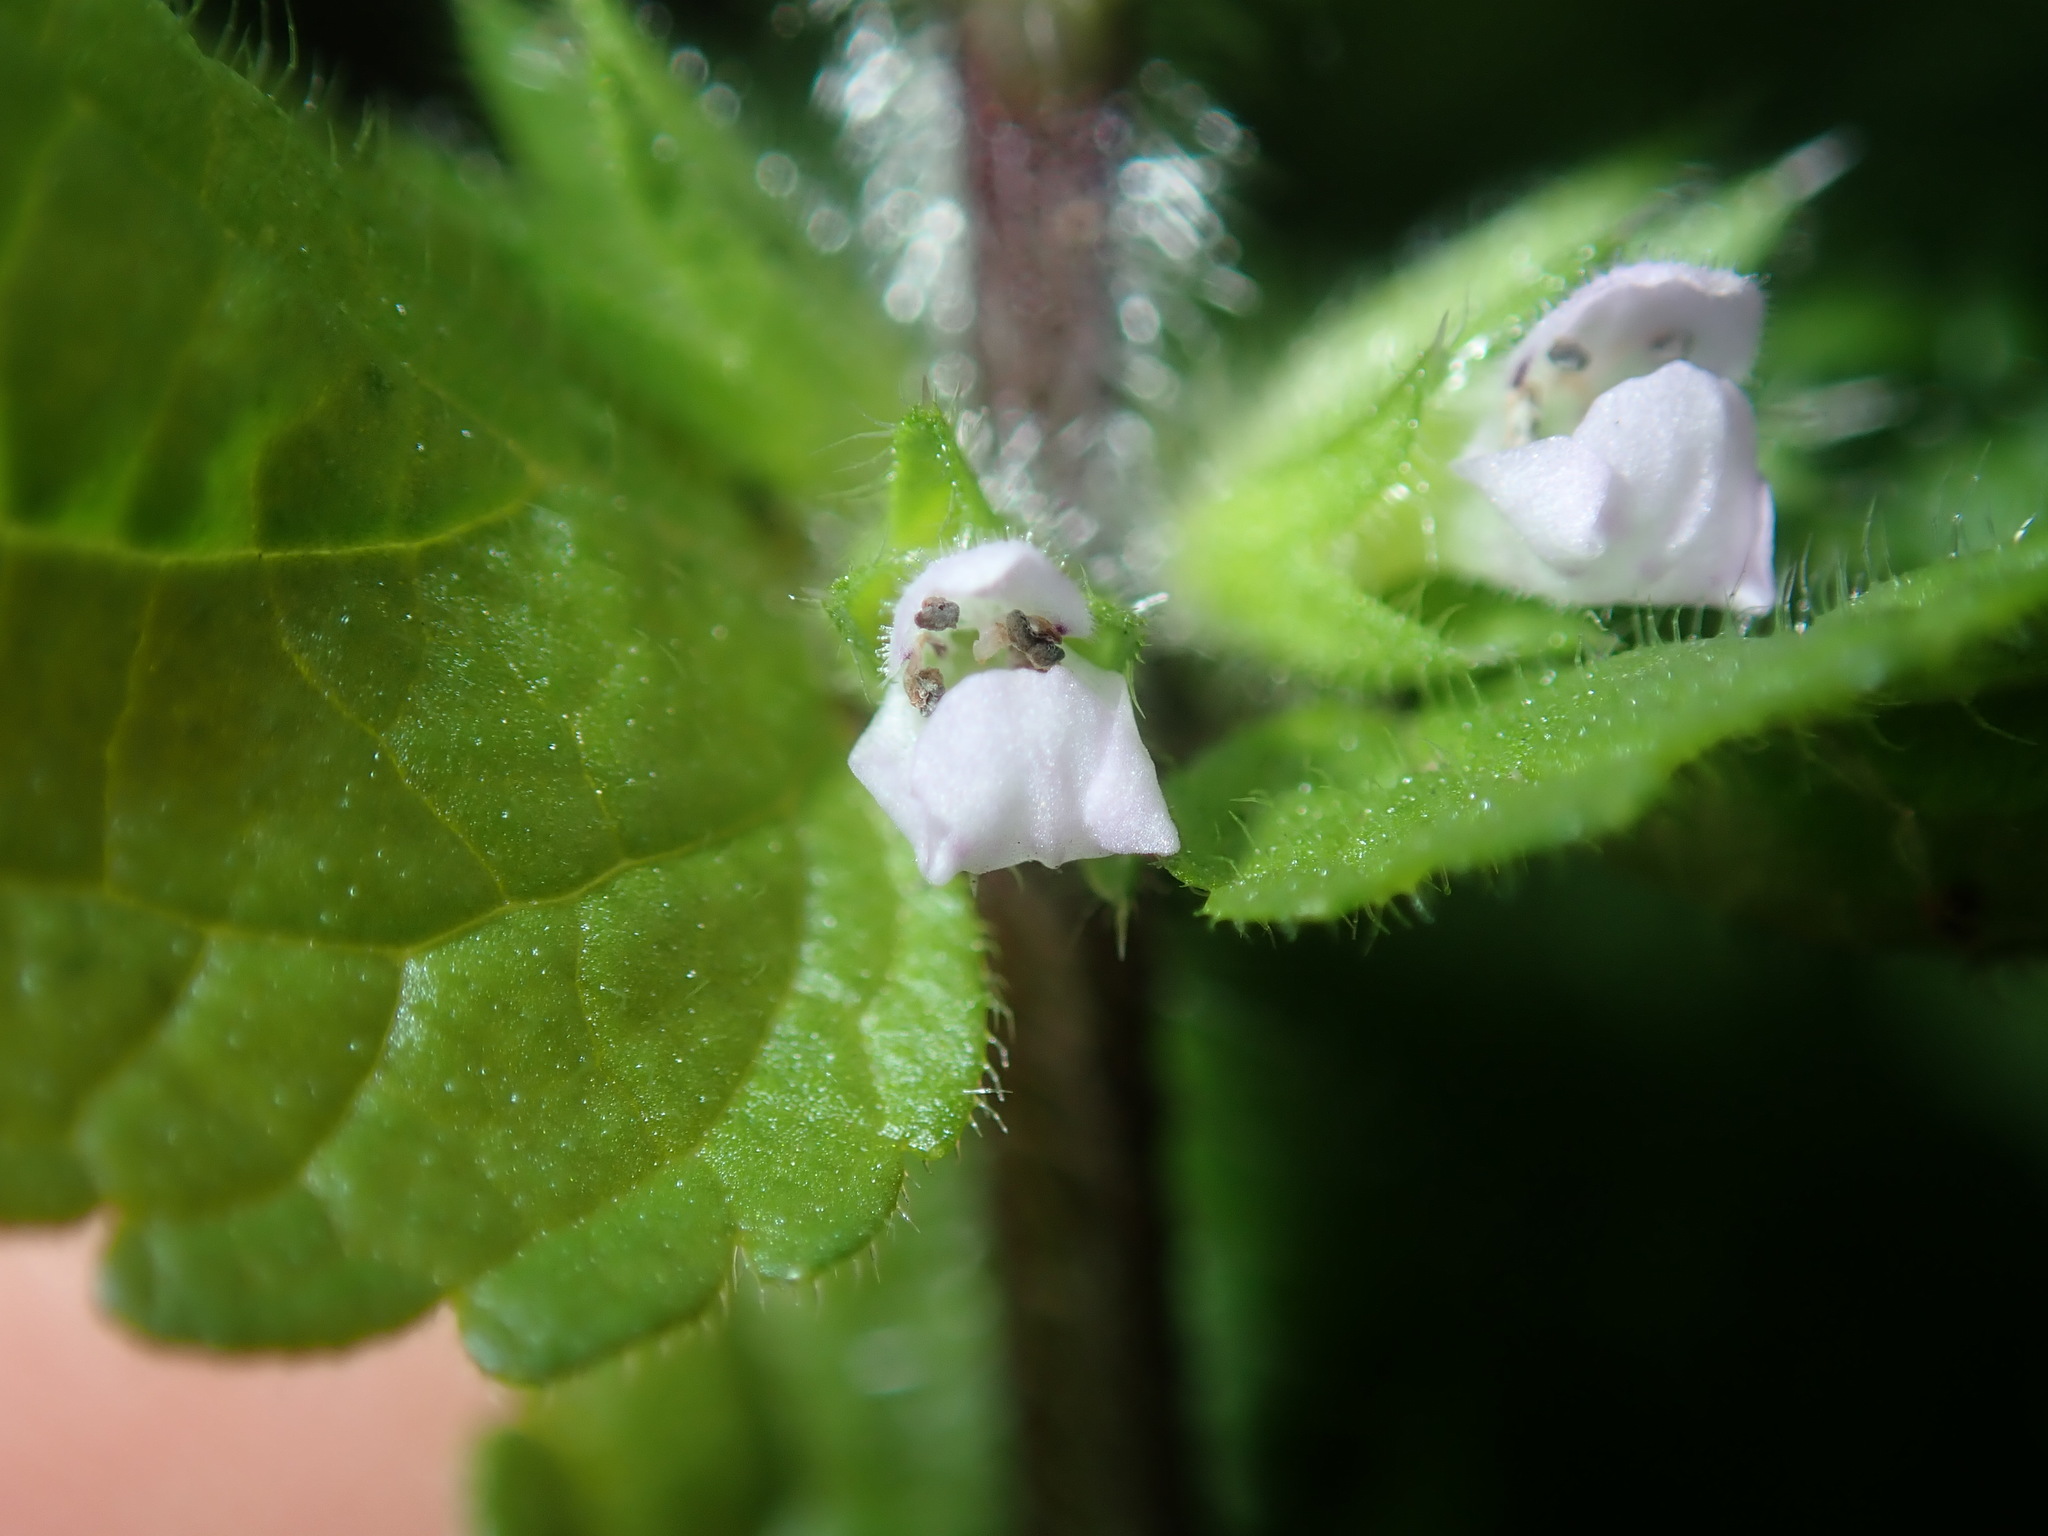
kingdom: Plantae
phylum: Tracheophyta
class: Magnoliopsida
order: Lamiales
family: Lamiaceae
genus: Stachys
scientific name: Stachys arvensis
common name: Field woundwort
